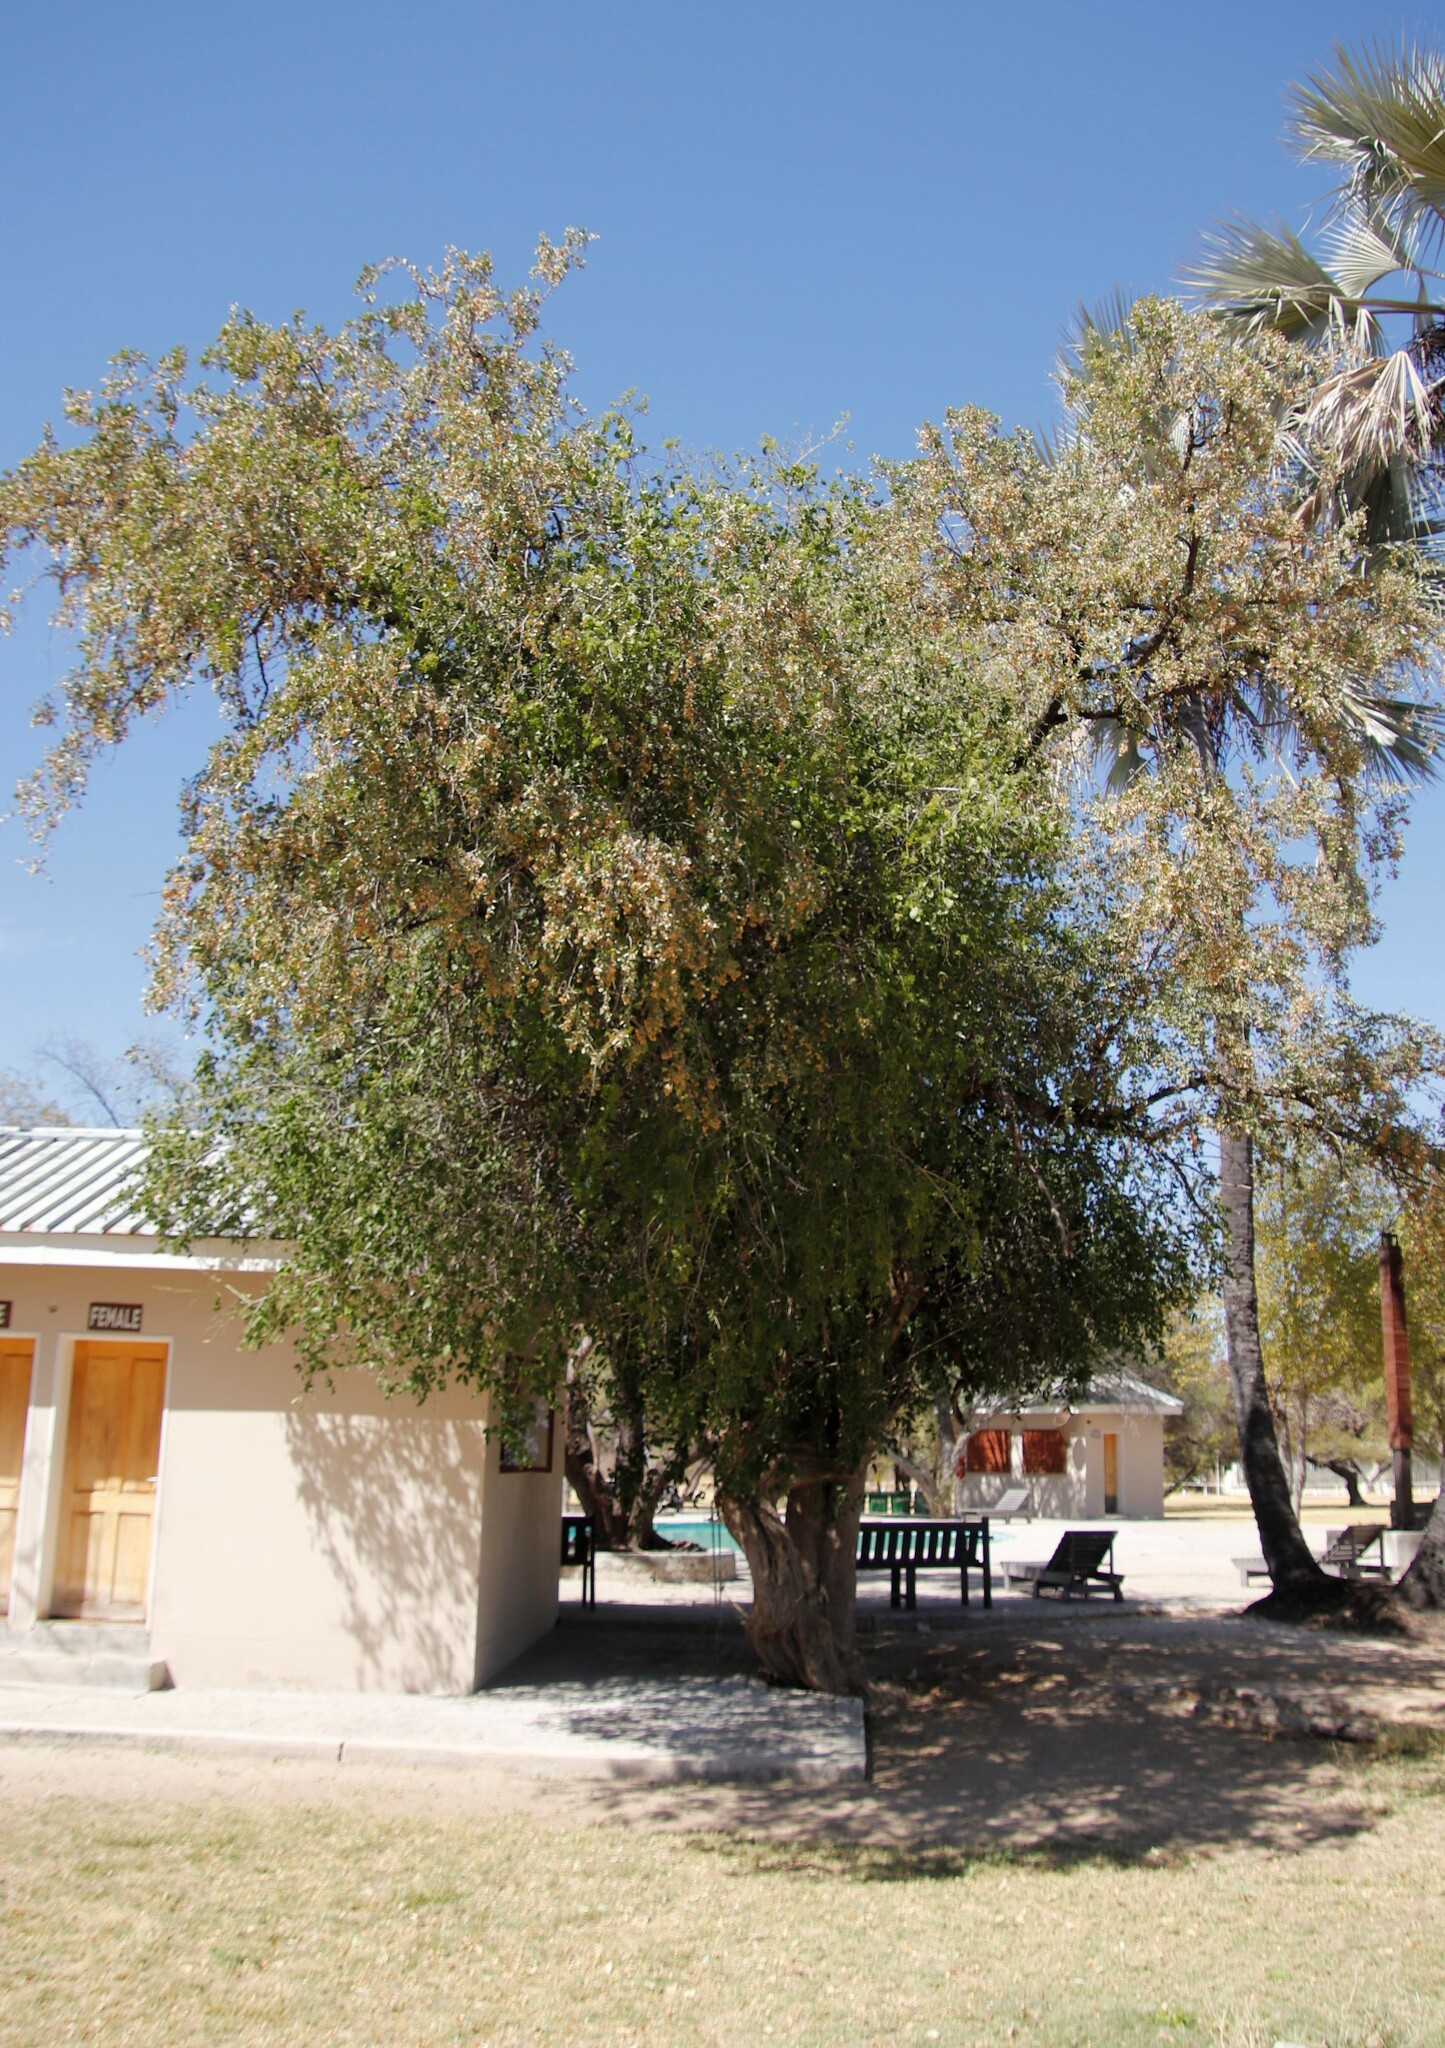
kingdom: Plantae
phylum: Tracheophyta
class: Magnoliopsida
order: Myrtales
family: Combretaceae
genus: Combretum
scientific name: Combretum hereroense
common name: Russet bushwillow
